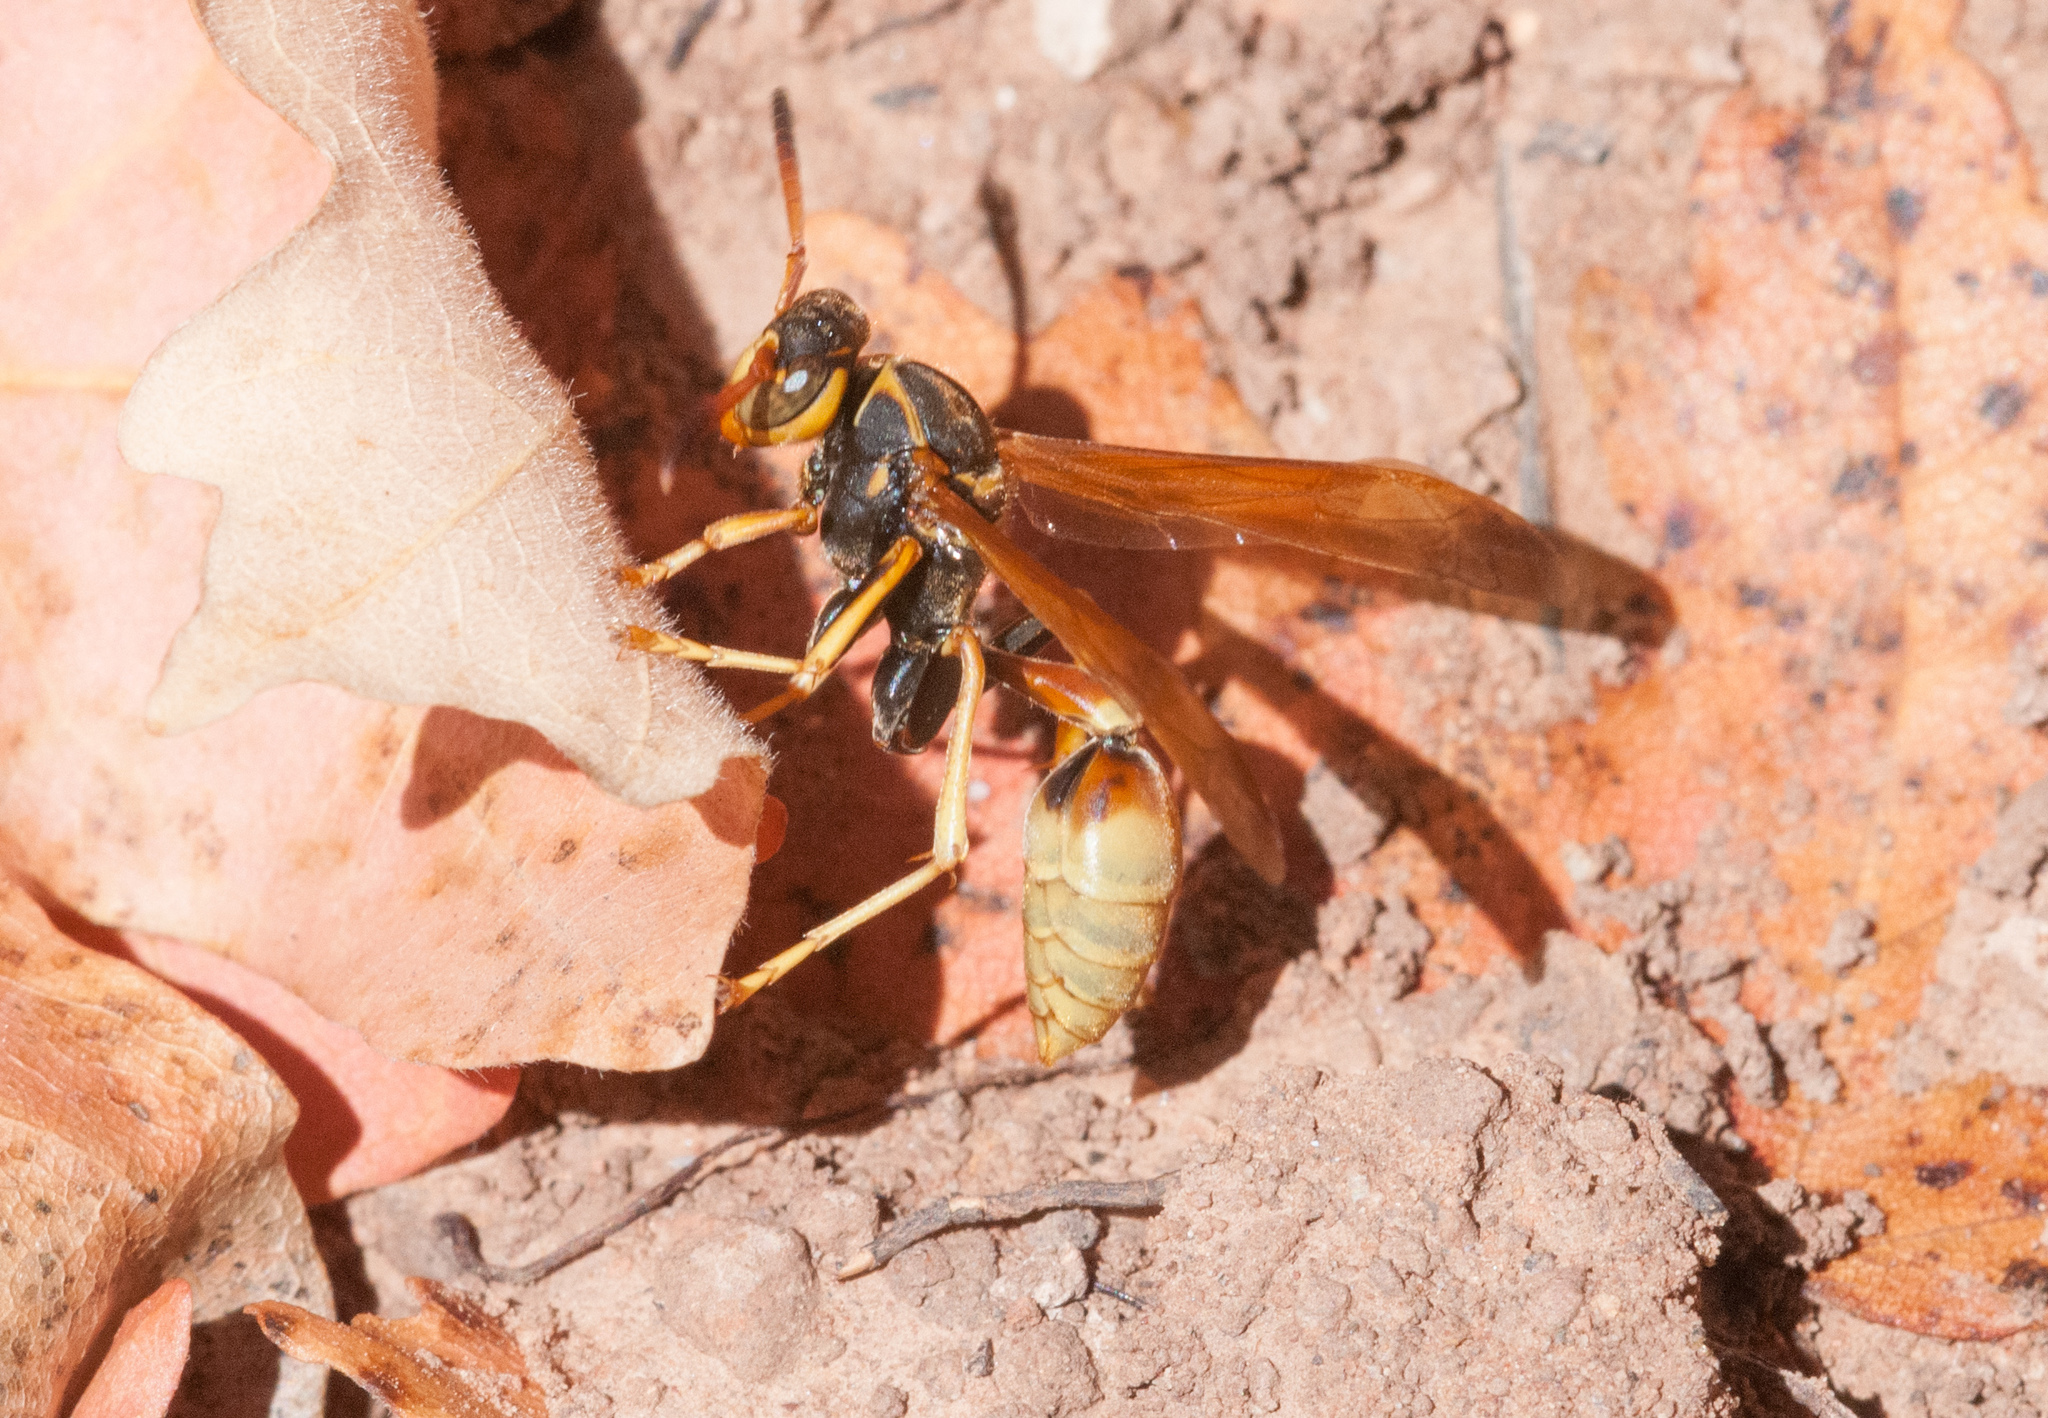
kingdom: Animalia
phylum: Arthropoda
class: Insecta
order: Hymenoptera
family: Vespidae
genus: Mischocyttarus
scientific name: Mischocyttarus flavitarsis
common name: Wasp
